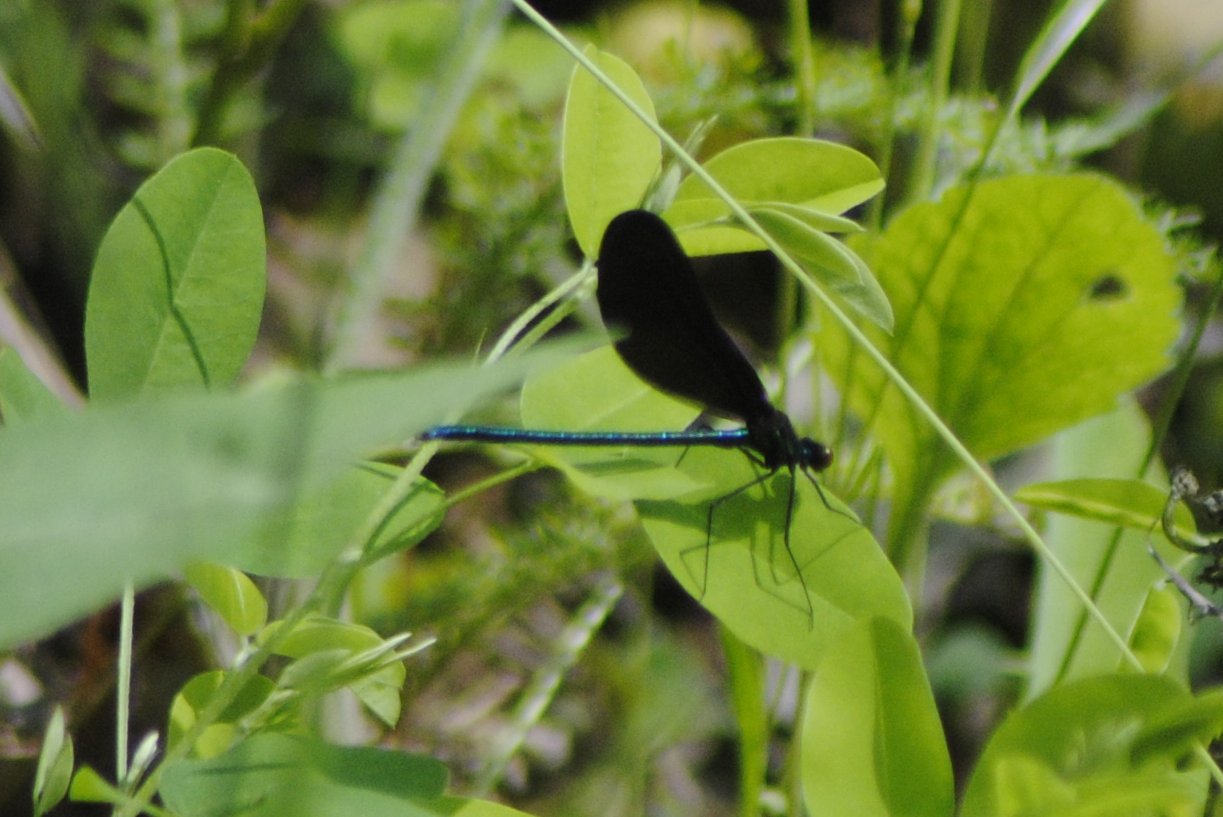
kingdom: Animalia
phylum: Arthropoda
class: Insecta
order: Odonata
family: Calopterygidae
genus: Calopteryx
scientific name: Calopteryx maculata
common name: Ebony jewelwing
